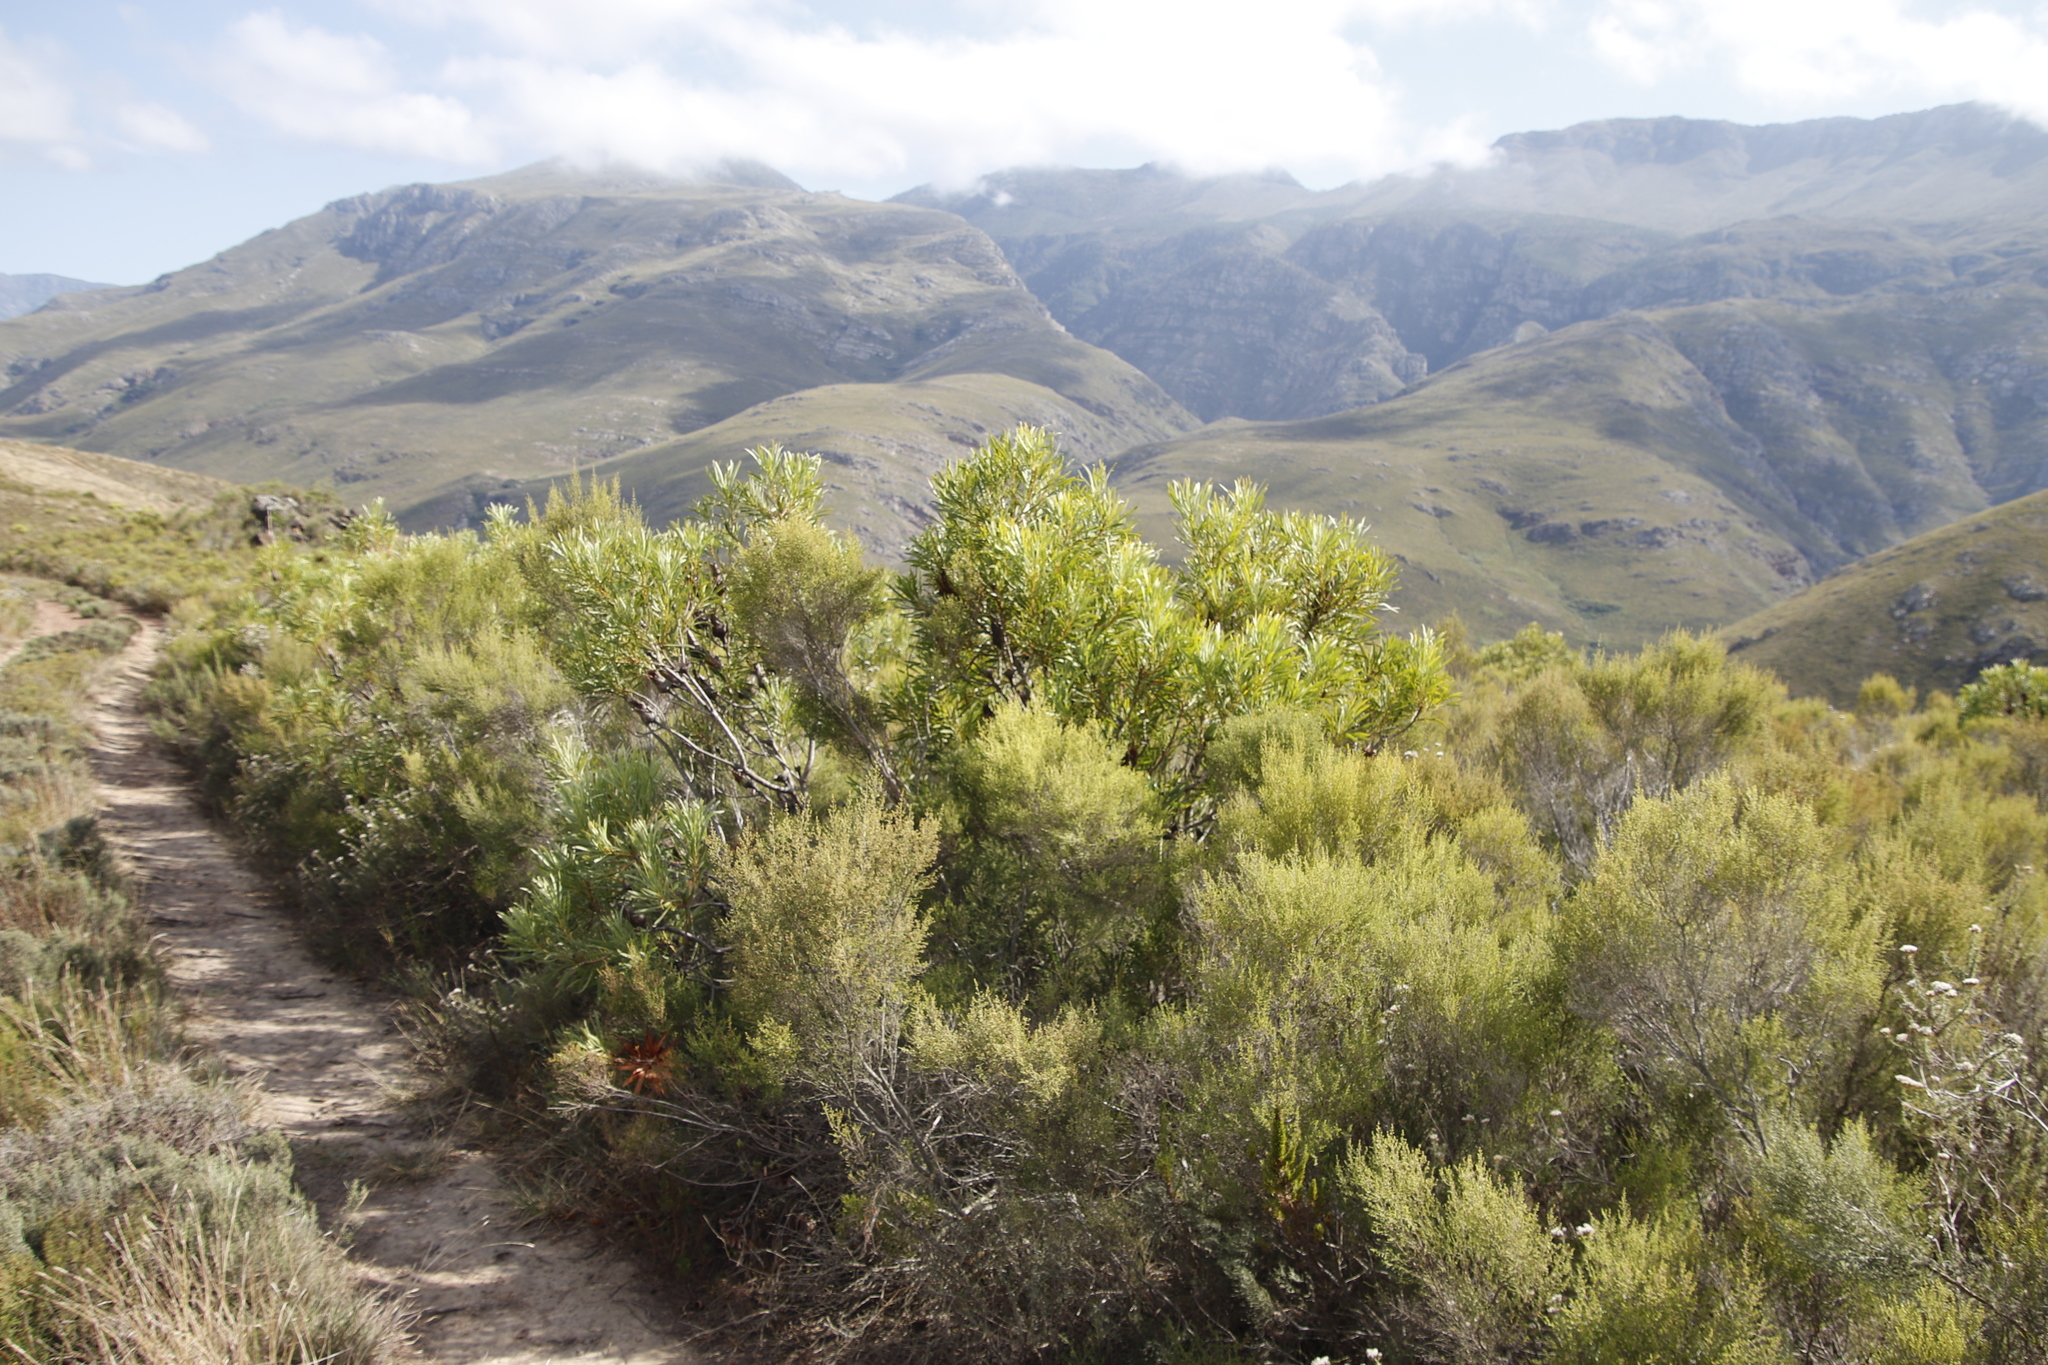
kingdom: Plantae
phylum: Tracheophyta
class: Magnoliopsida
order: Proteales
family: Proteaceae
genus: Protea
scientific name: Protea repens
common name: Sugarbush
